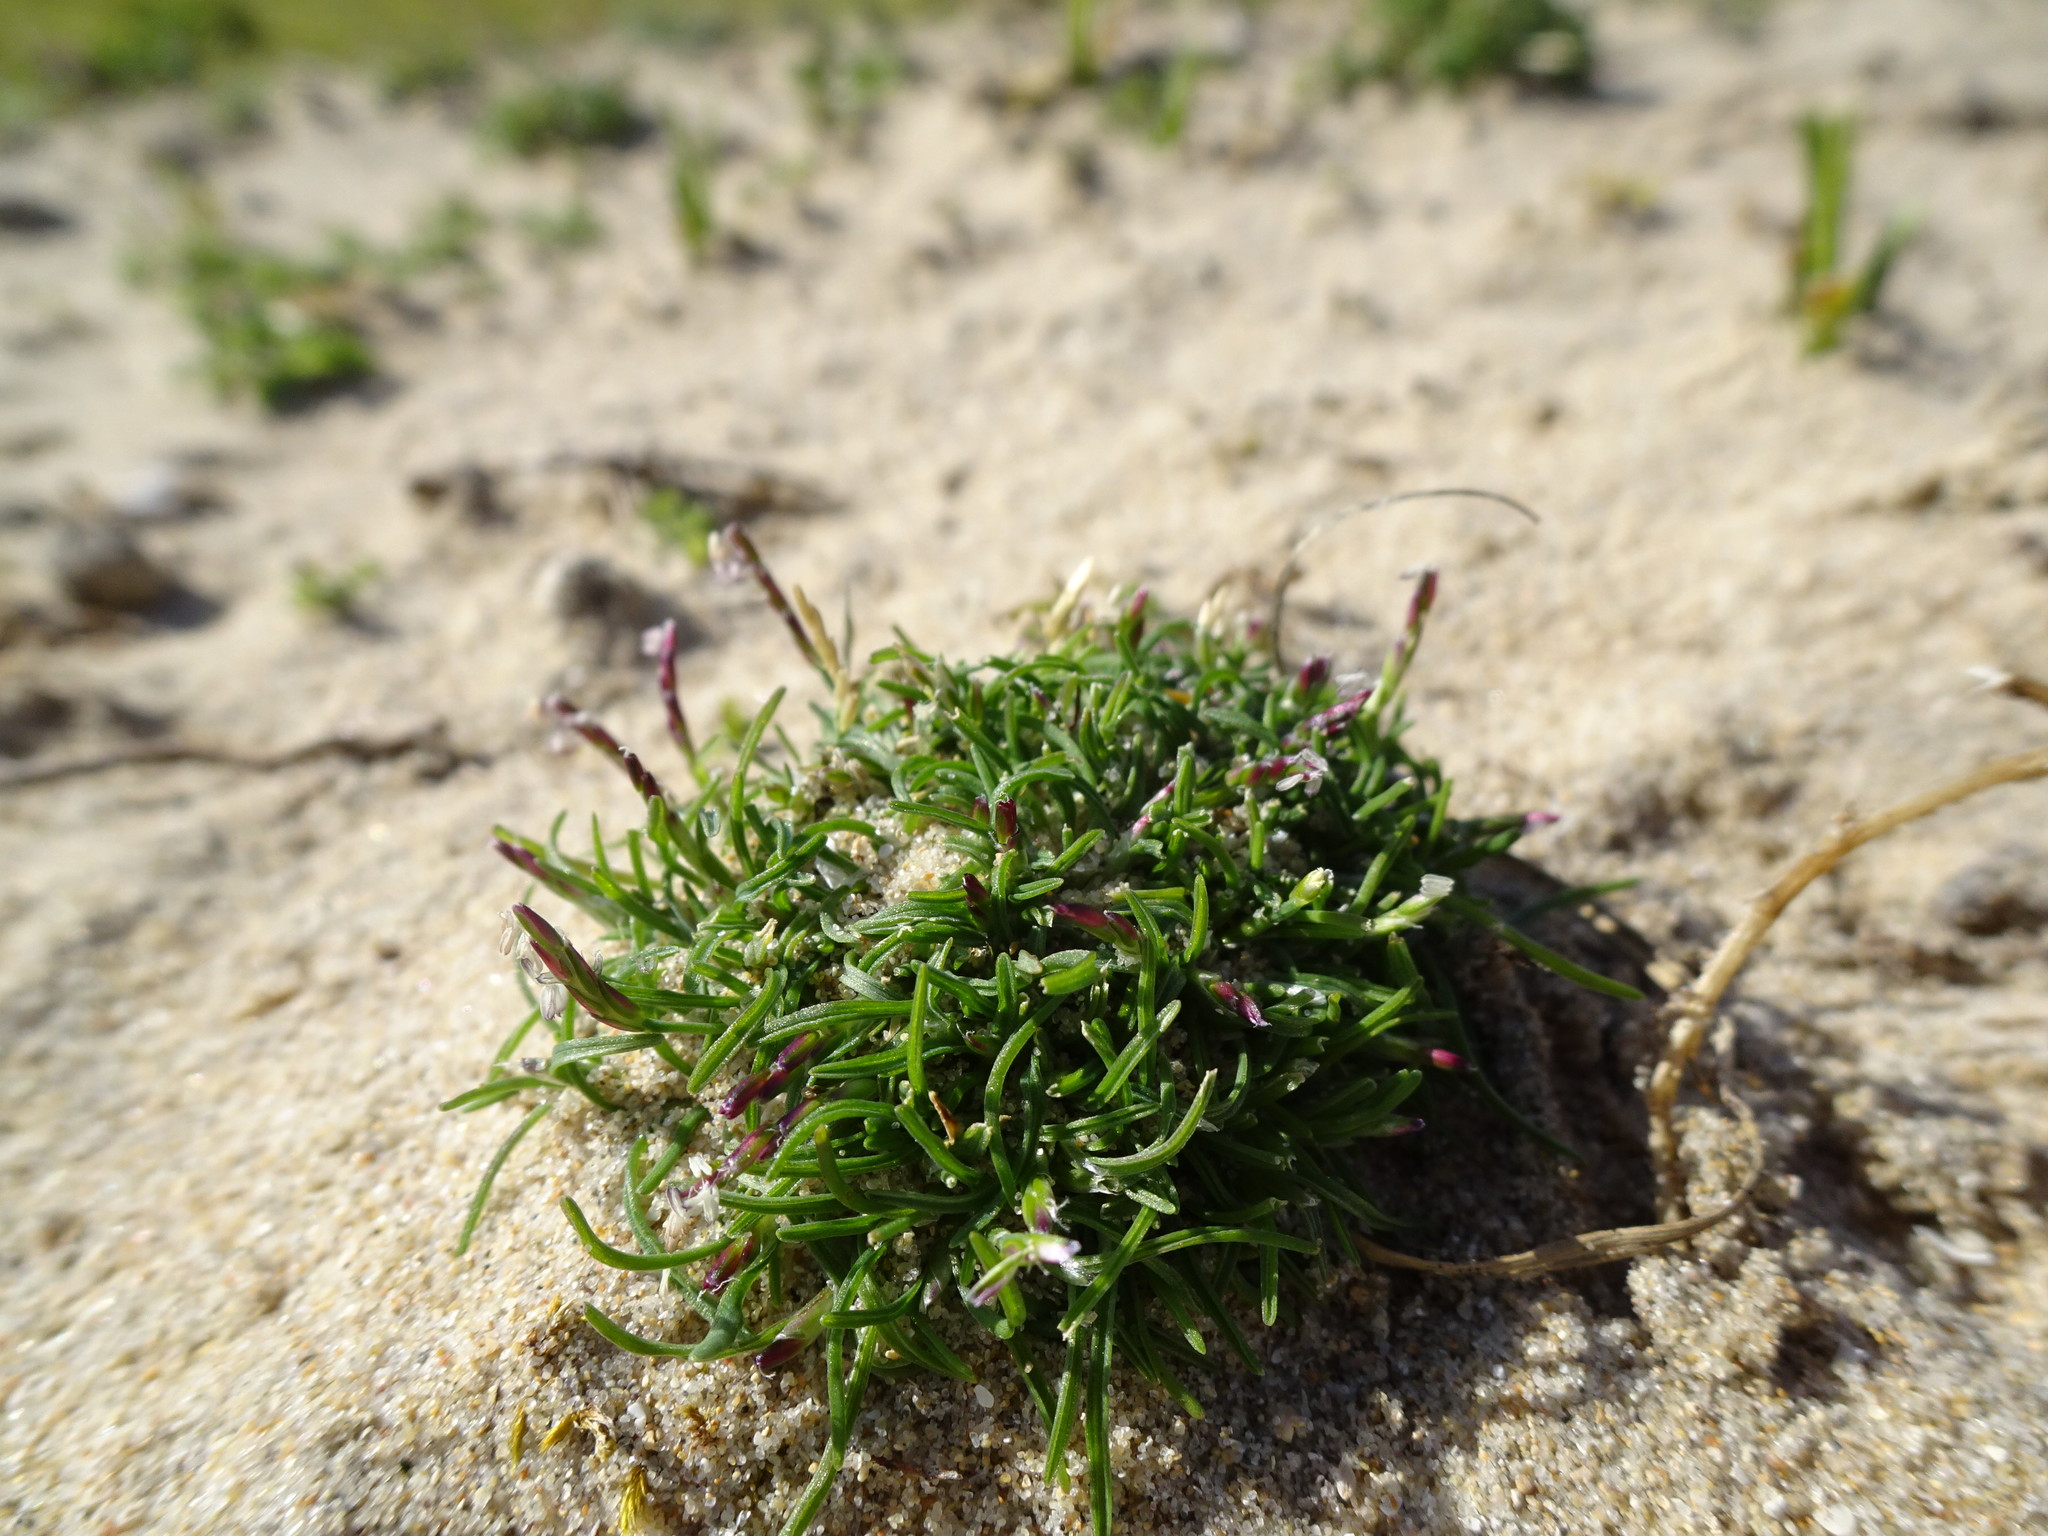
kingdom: Plantae
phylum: Tracheophyta
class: Liliopsida
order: Poales
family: Poaceae
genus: Mibora
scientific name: Mibora minima
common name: Early sand-grass
